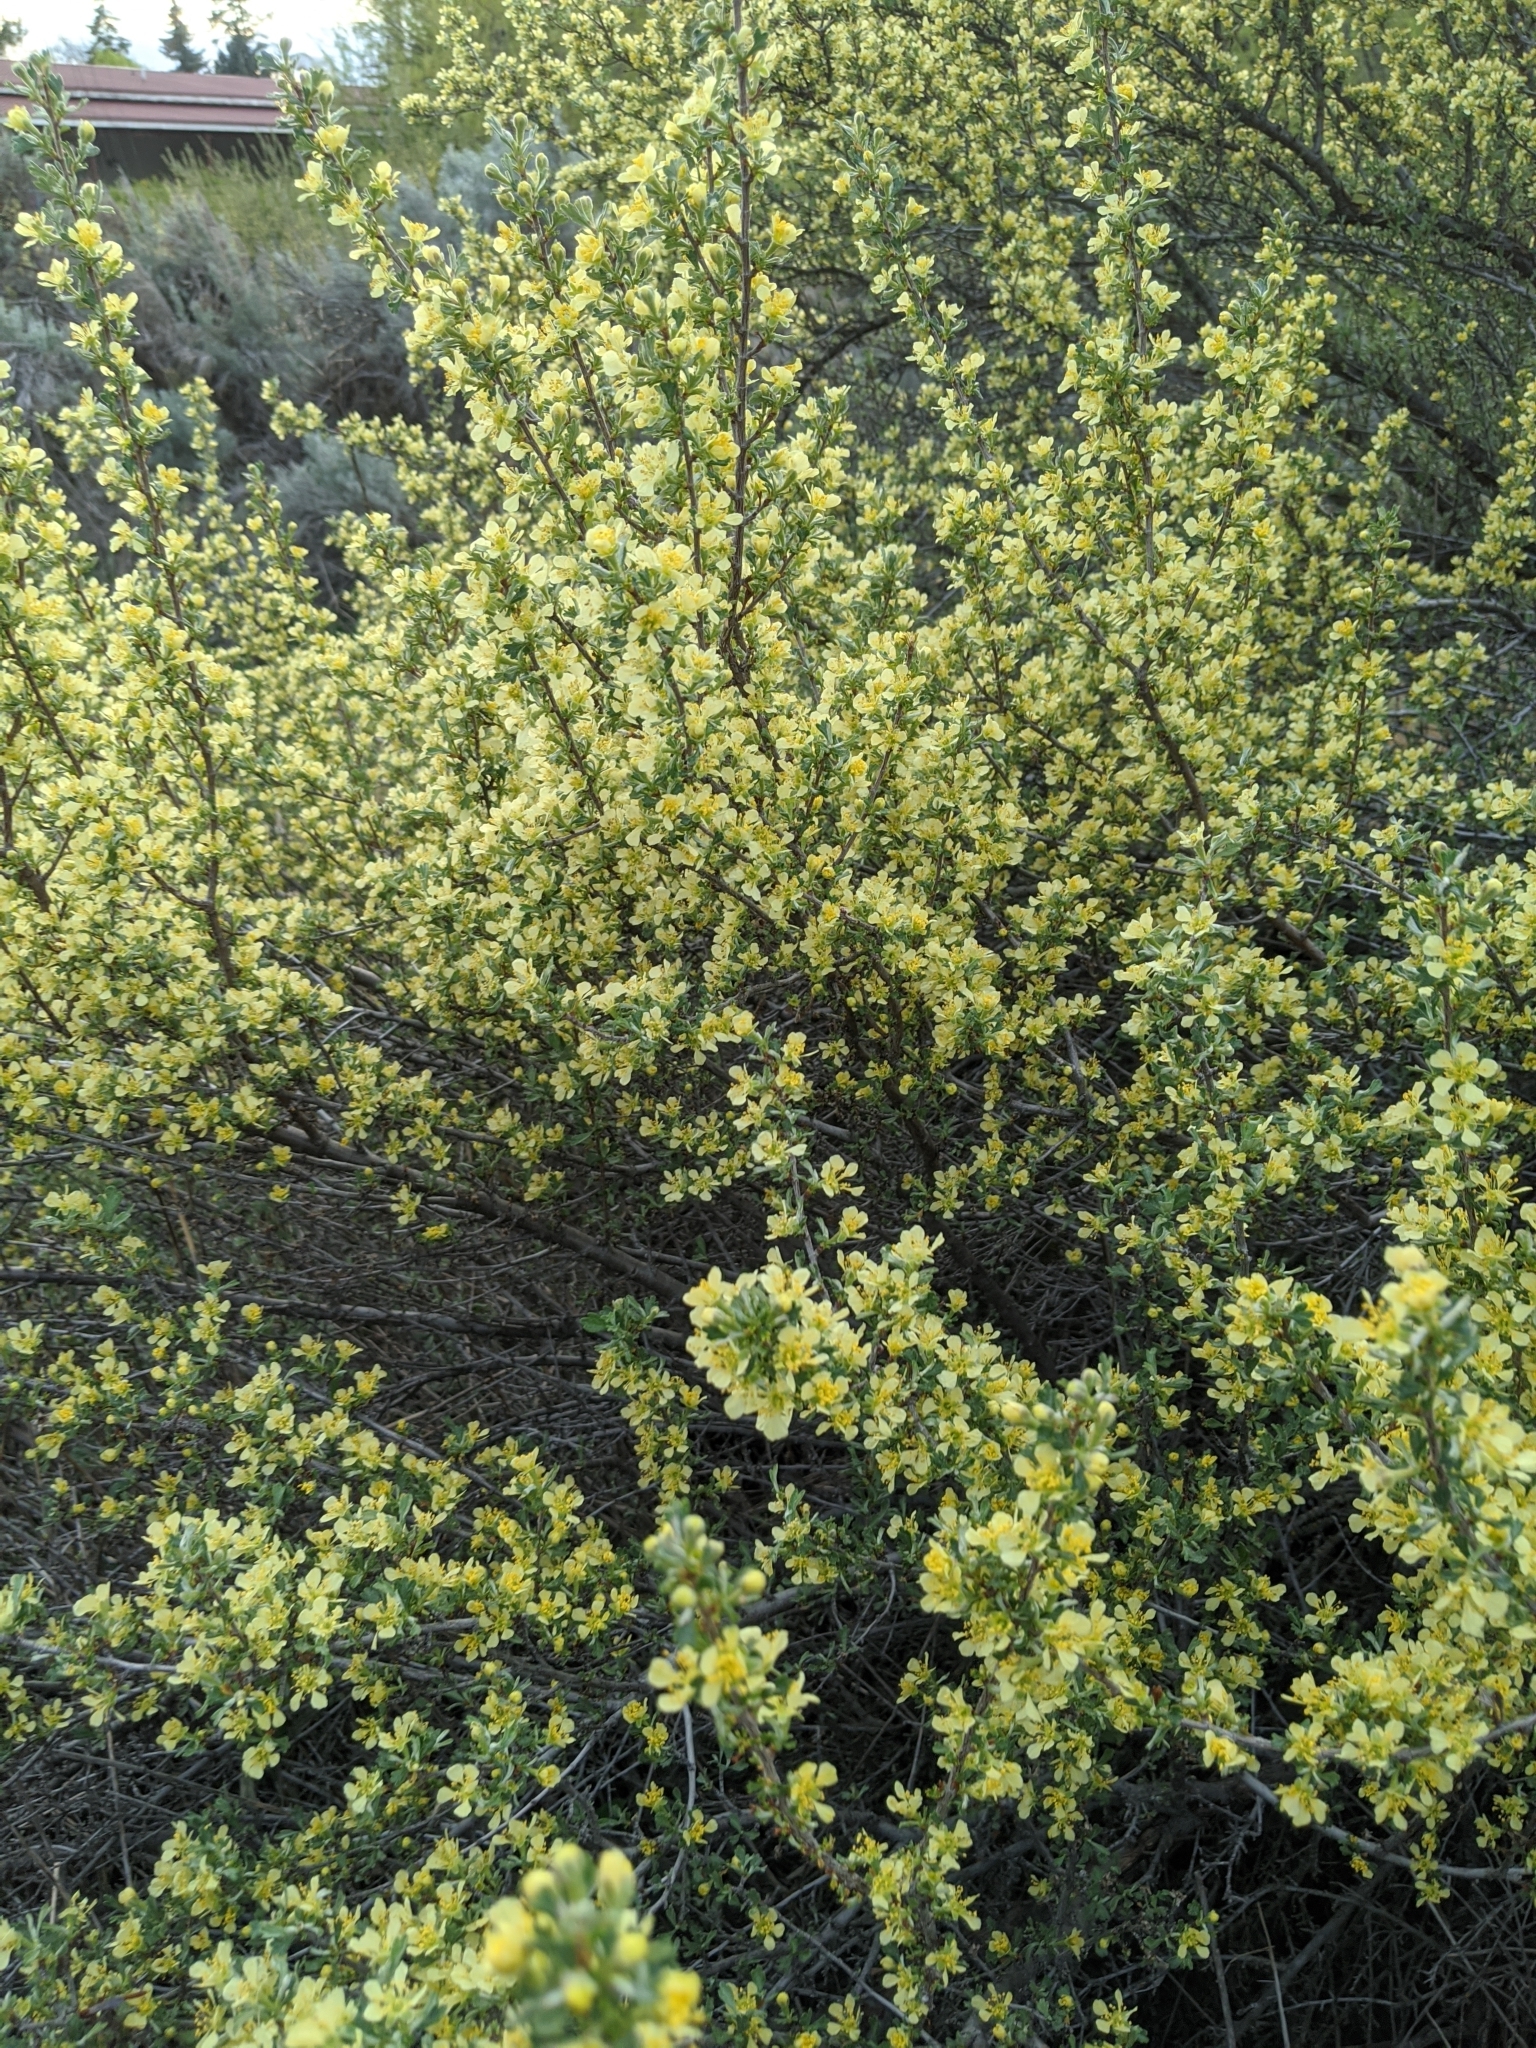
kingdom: Plantae
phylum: Tracheophyta
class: Magnoliopsida
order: Rosales
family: Rosaceae
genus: Purshia
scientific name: Purshia tridentata
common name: Antelope bitterbrush
